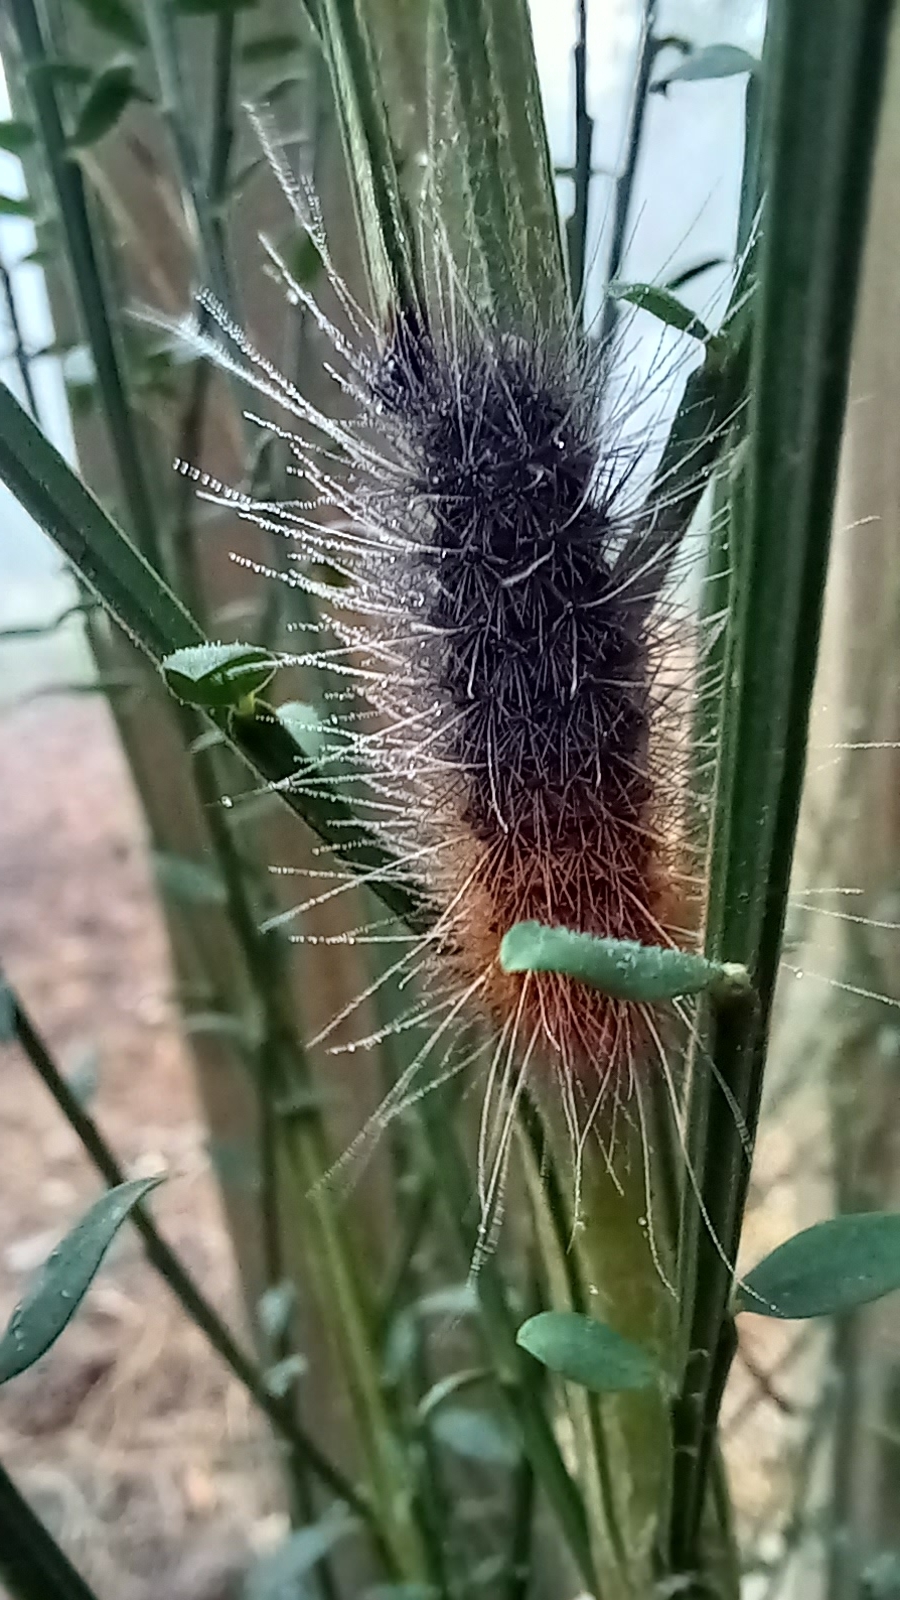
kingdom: Animalia
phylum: Arthropoda
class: Insecta
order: Lepidoptera
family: Erebidae
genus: Rhodogastria
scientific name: Rhodogastria similis
